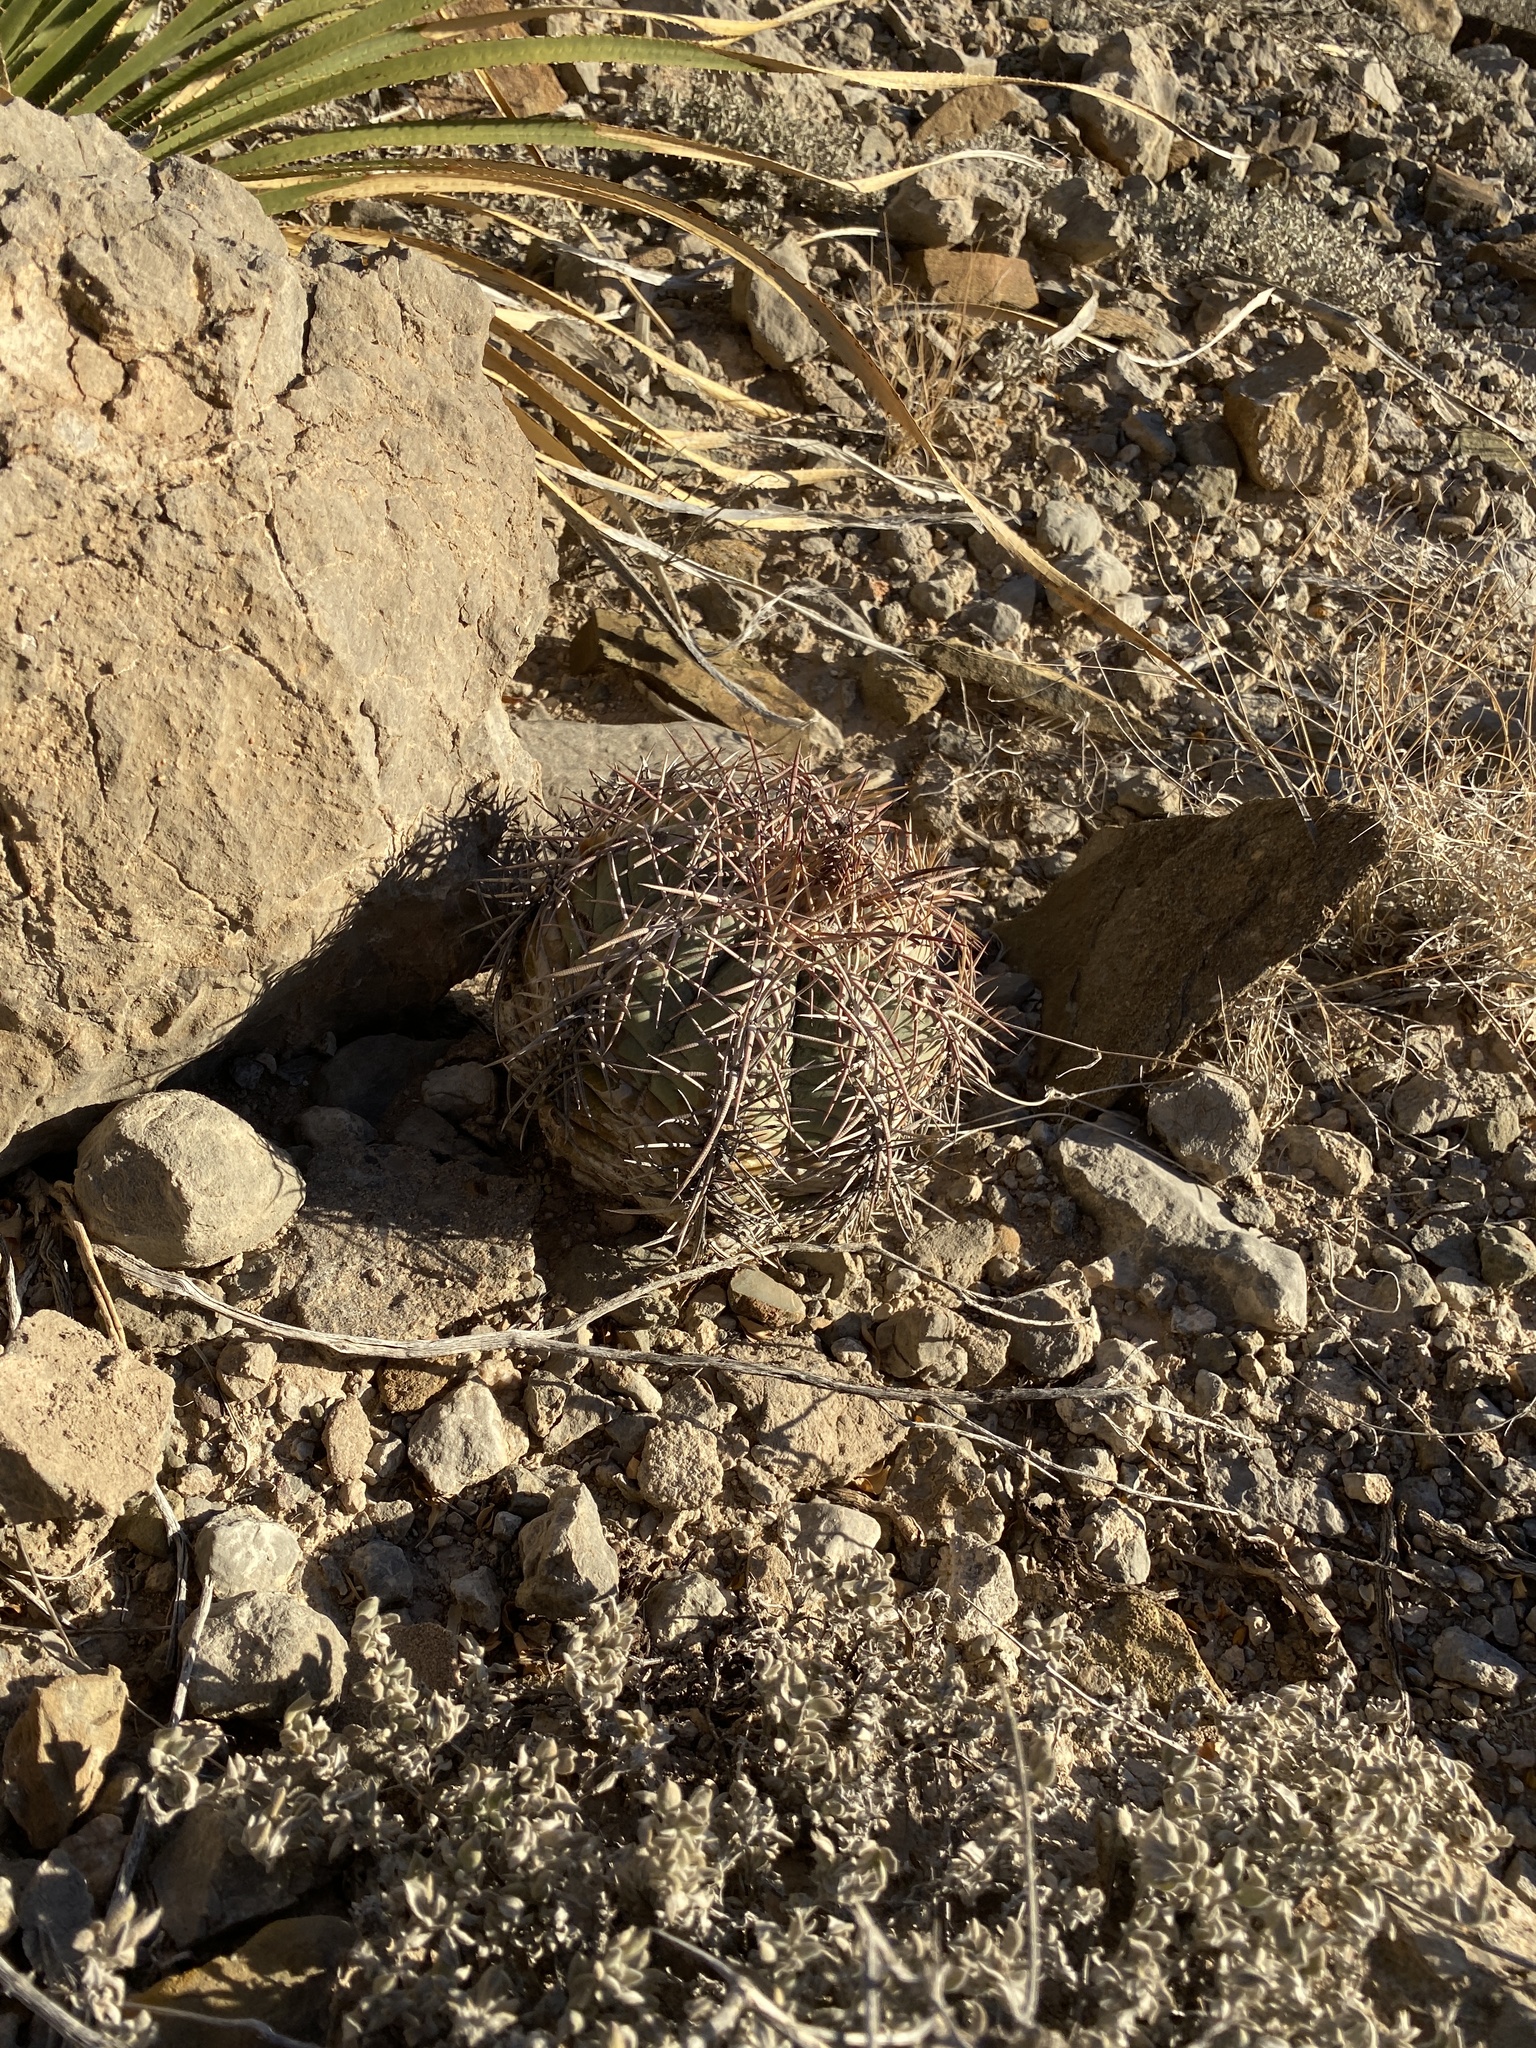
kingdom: Plantae
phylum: Tracheophyta
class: Magnoliopsida
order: Caryophyllales
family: Cactaceae
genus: Echinocactus
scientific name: Echinocactus horizonthalonius
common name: Devilshead
